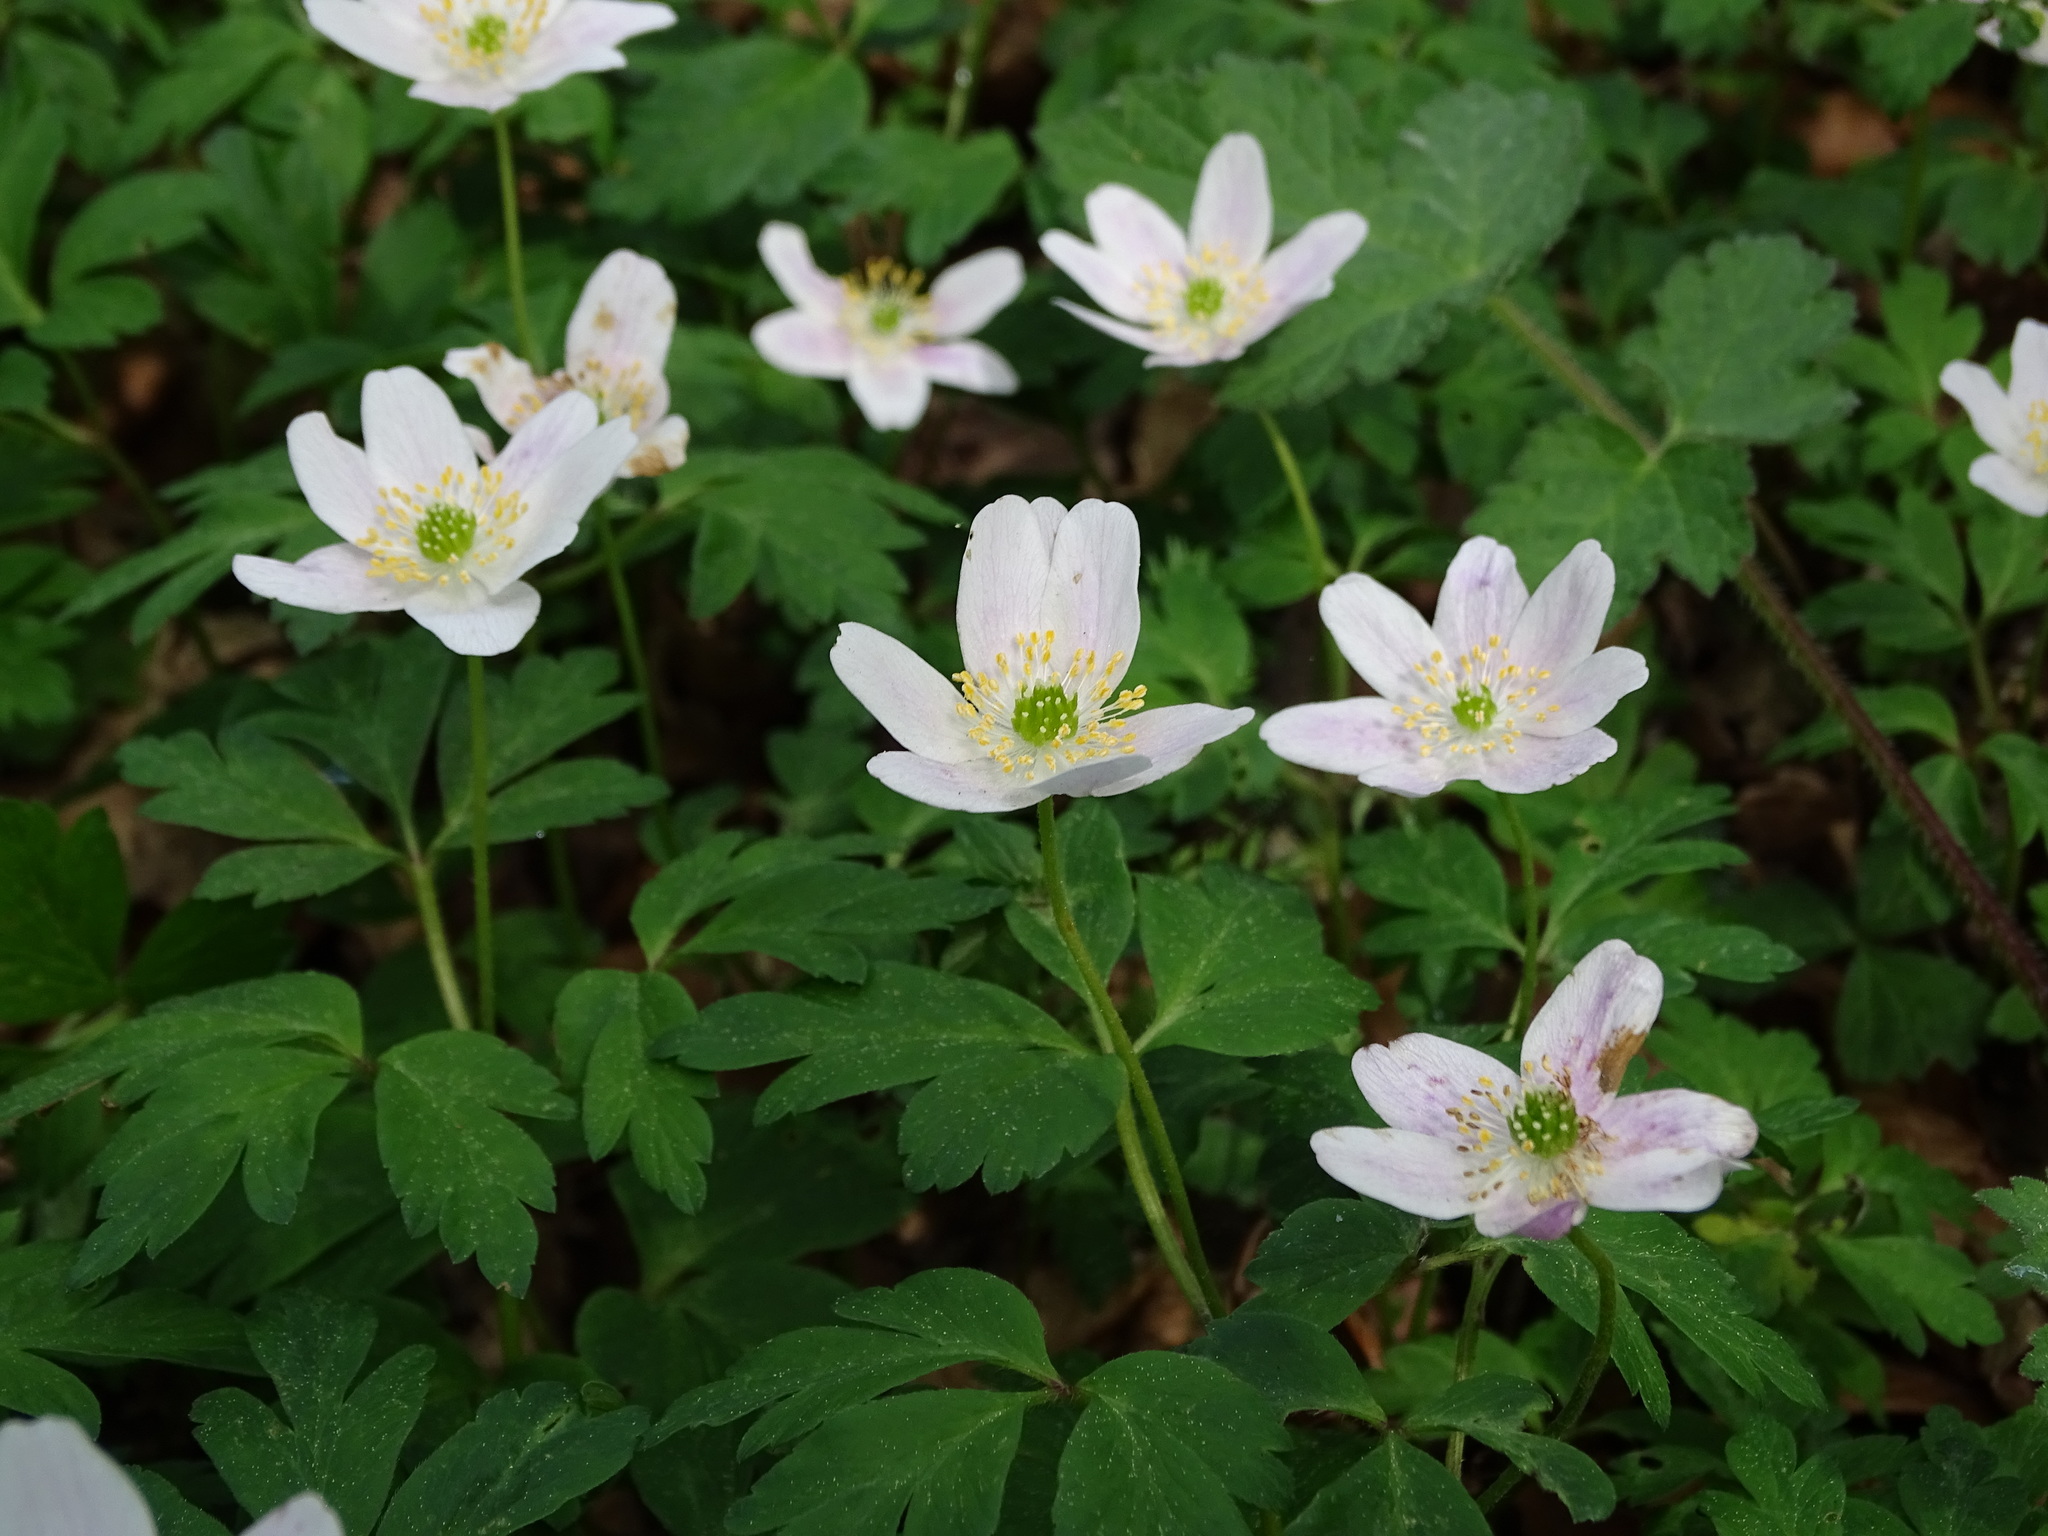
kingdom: Plantae
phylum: Tracheophyta
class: Magnoliopsida
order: Ranunculales
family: Ranunculaceae
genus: Anemone
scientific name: Anemone nemorosa
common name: Wood anemone
